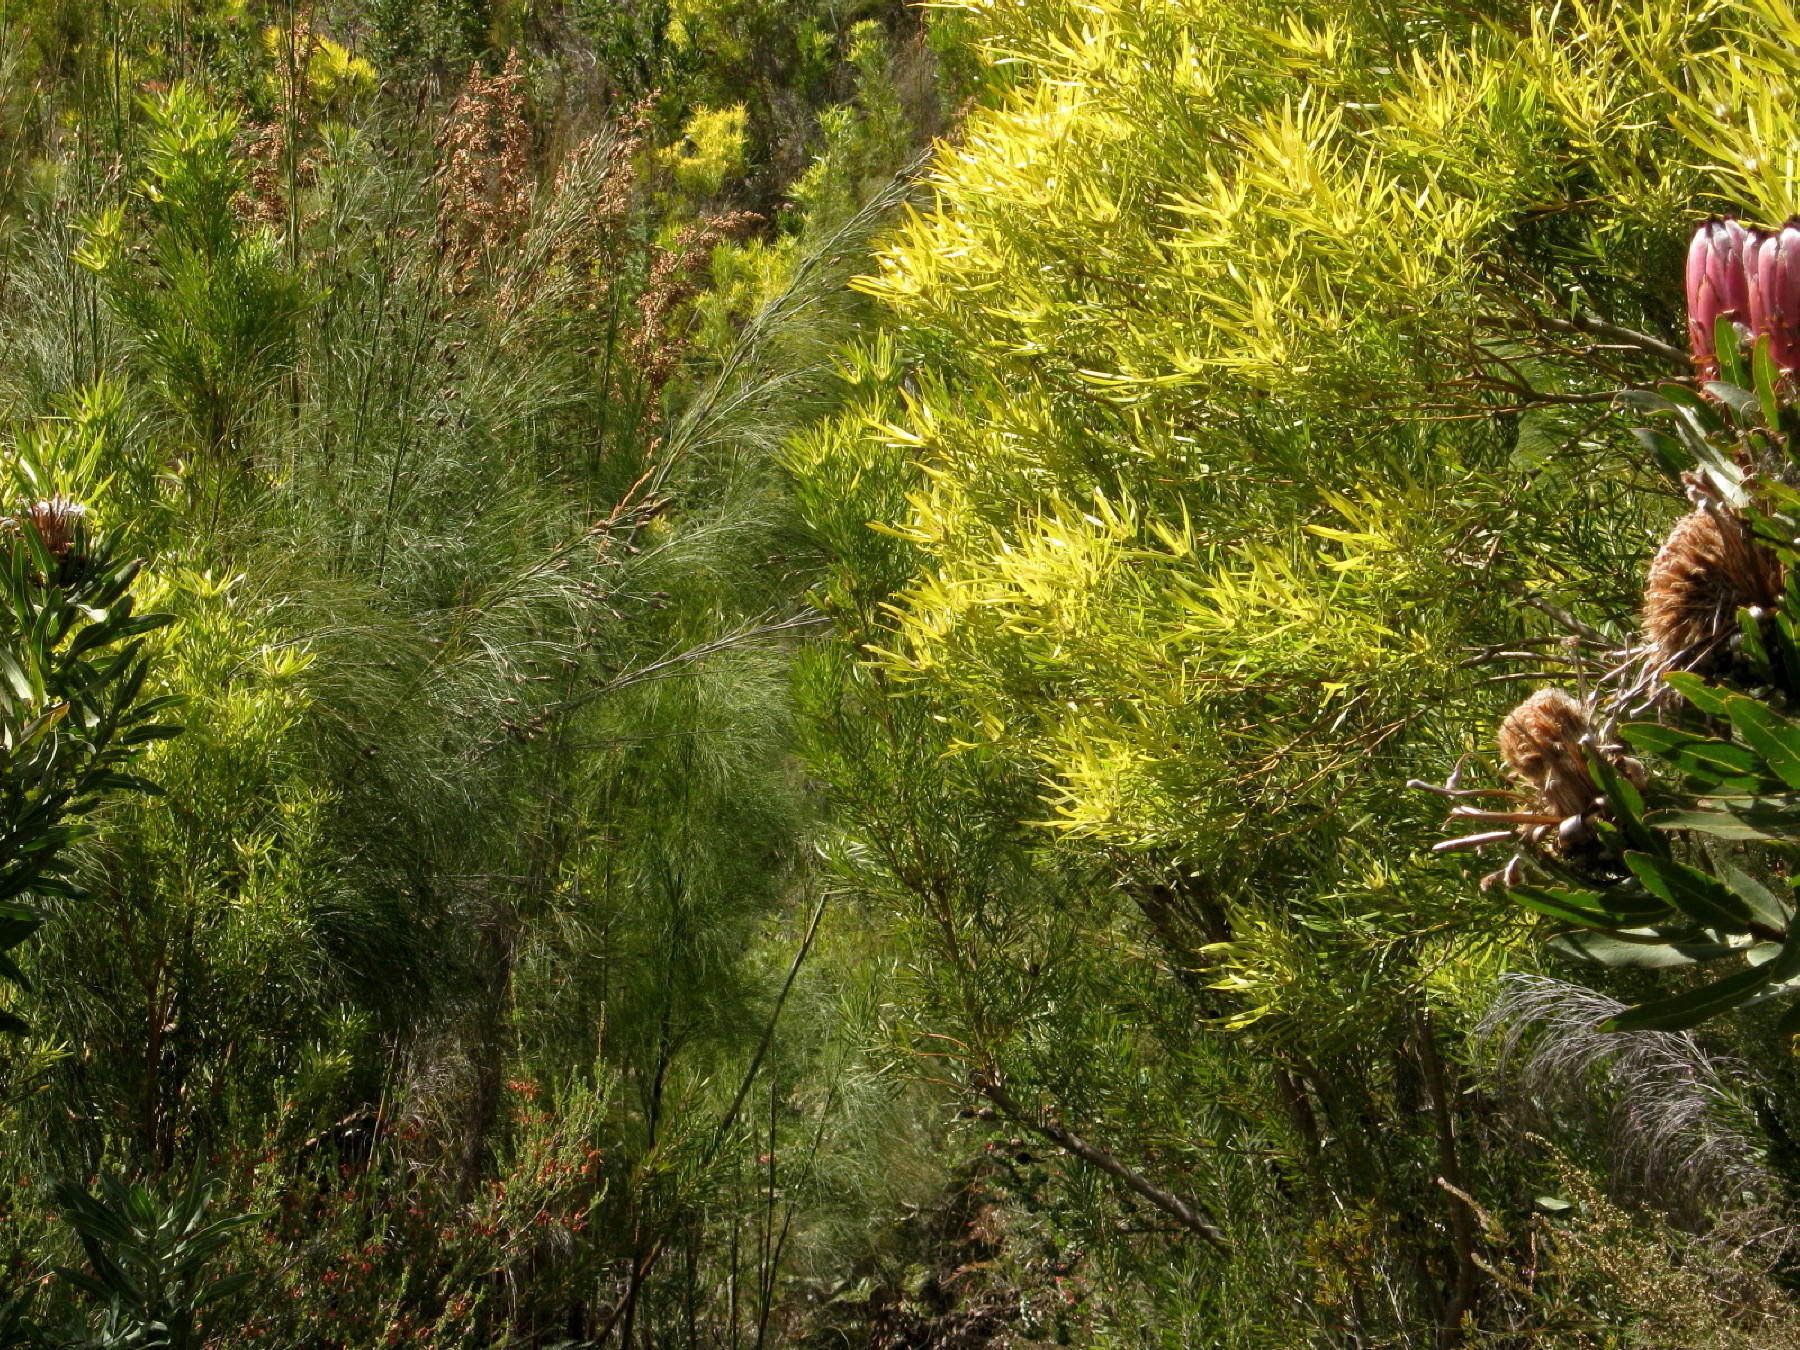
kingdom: Plantae
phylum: Tracheophyta
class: Magnoliopsida
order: Proteales
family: Proteaceae
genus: Leucadendron
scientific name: Leucadendron eucalyptifolium
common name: Gum-leaved conebush
